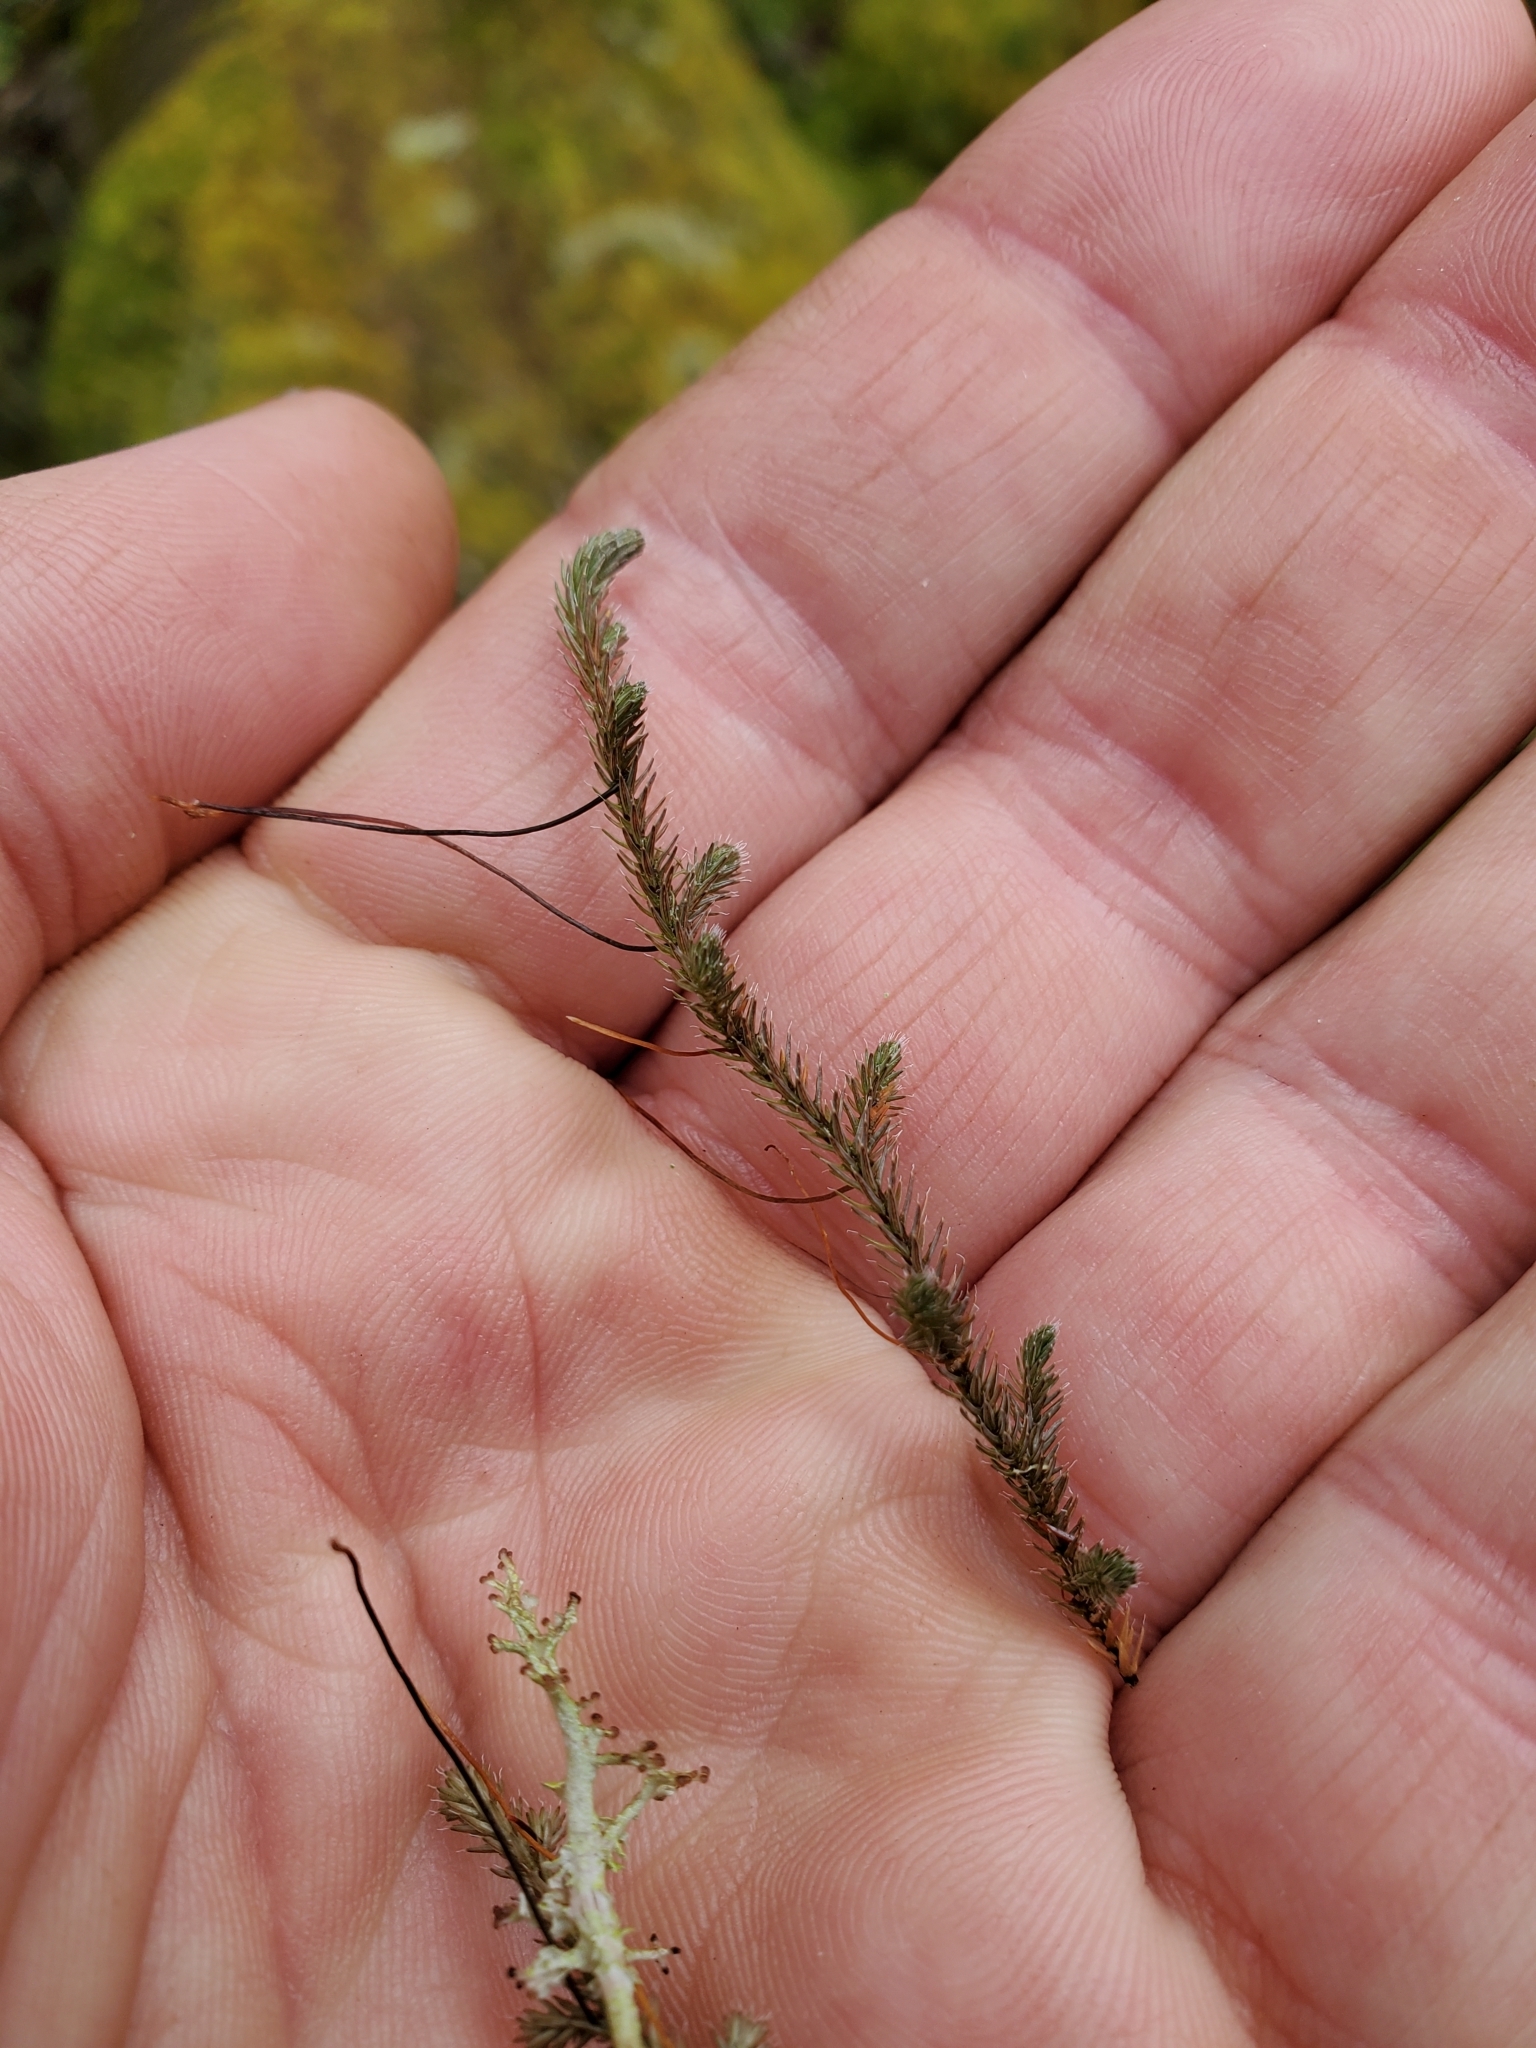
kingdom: Plantae
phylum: Tracheophyta
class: Lycopodiopsida
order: Selaginellales
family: Selaginellaceae
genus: Selaginella
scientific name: Selaginella wallacei
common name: Wallace's selaginella
